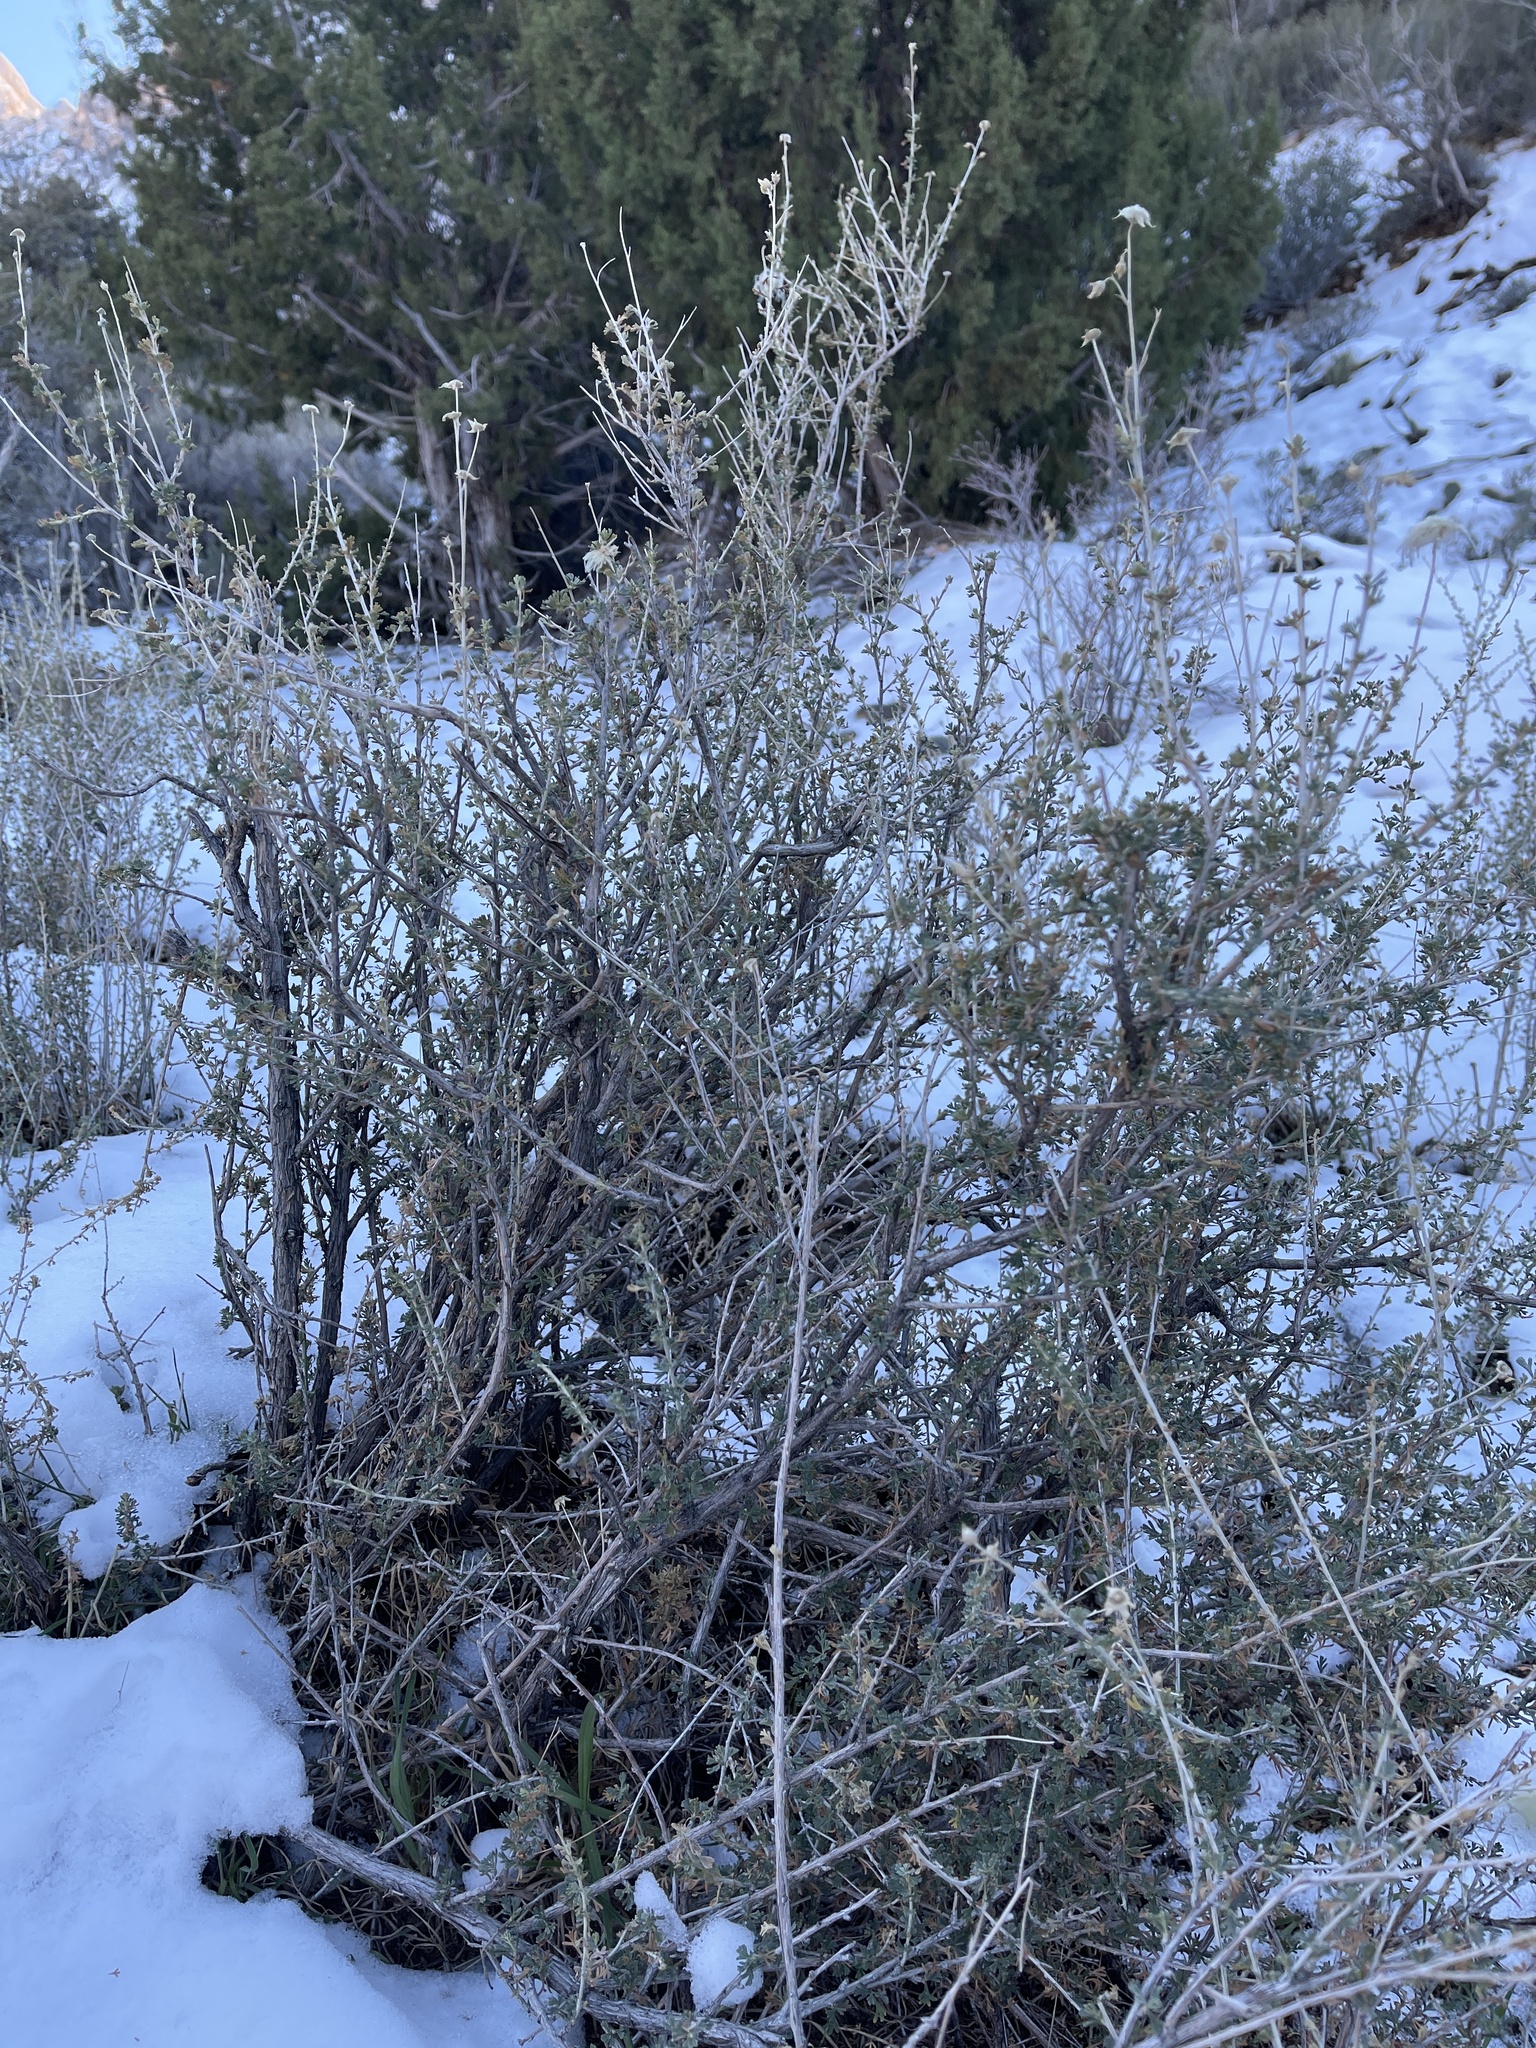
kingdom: Plantae
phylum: Tracheophyta
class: Magnoliopsida
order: Rosales
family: Rosaceae
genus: Fallugia
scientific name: Fallugia paradoxa
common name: Apache-plume
